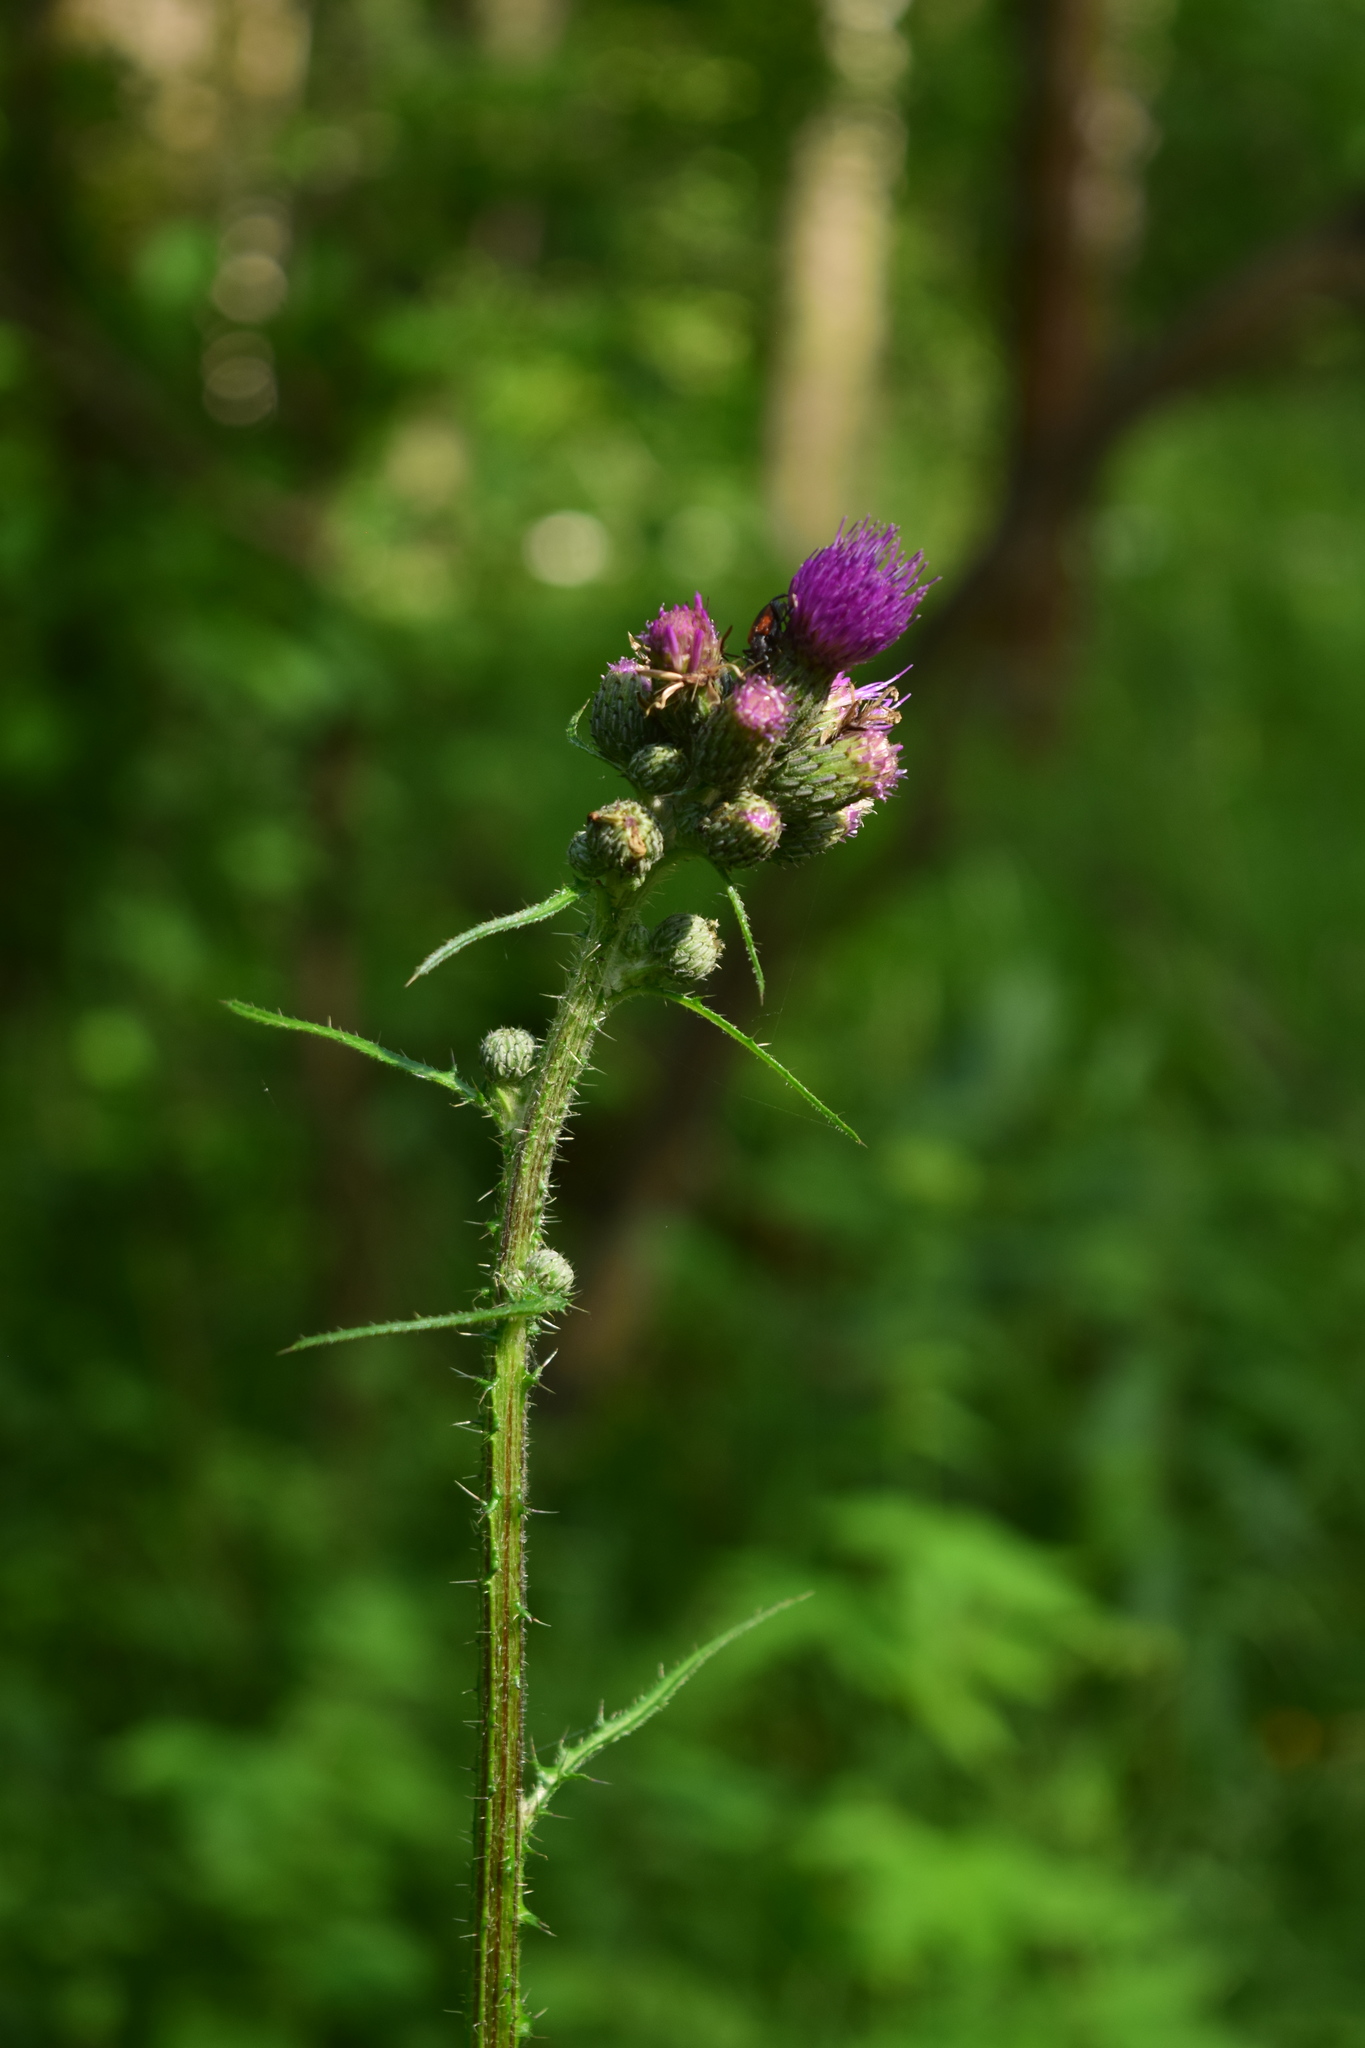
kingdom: Plantae
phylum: Tracheophyta
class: Magnoliopsida
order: Asterales
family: Asteraceae
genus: Cirsium
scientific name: Cirsium palustre
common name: Marsh thistle
